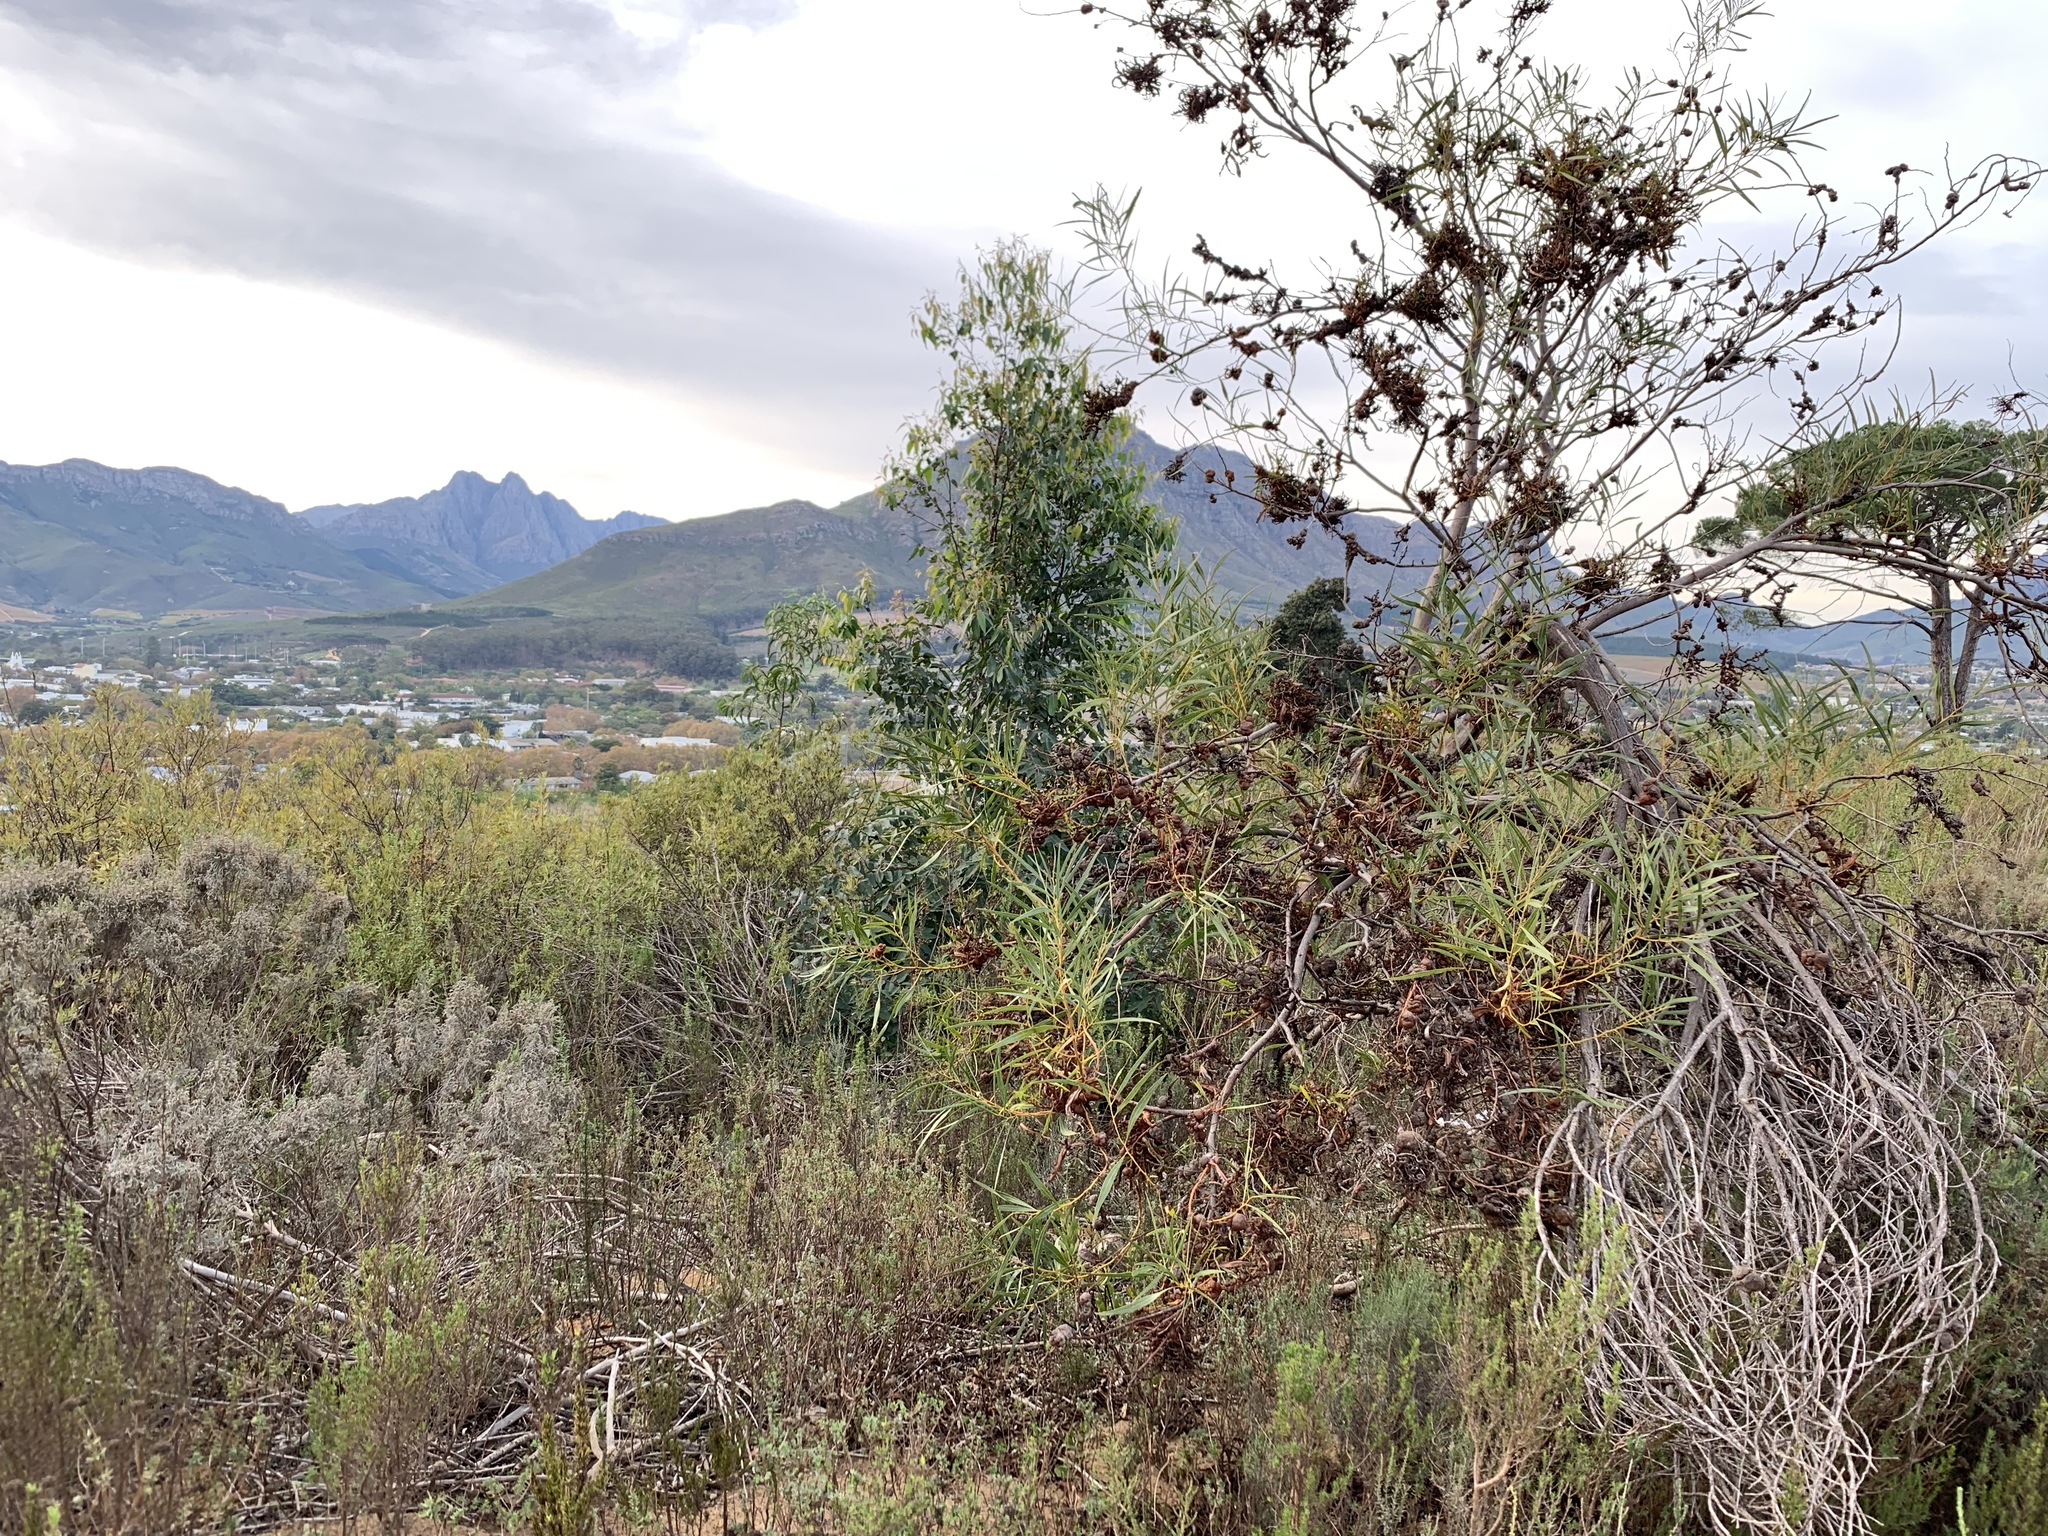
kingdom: Plantae
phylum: Tracheophyta
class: Magnoliopsida
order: Fabales
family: Fabaceae
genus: Acacia
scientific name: Acacia saligna
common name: Orange wattle
